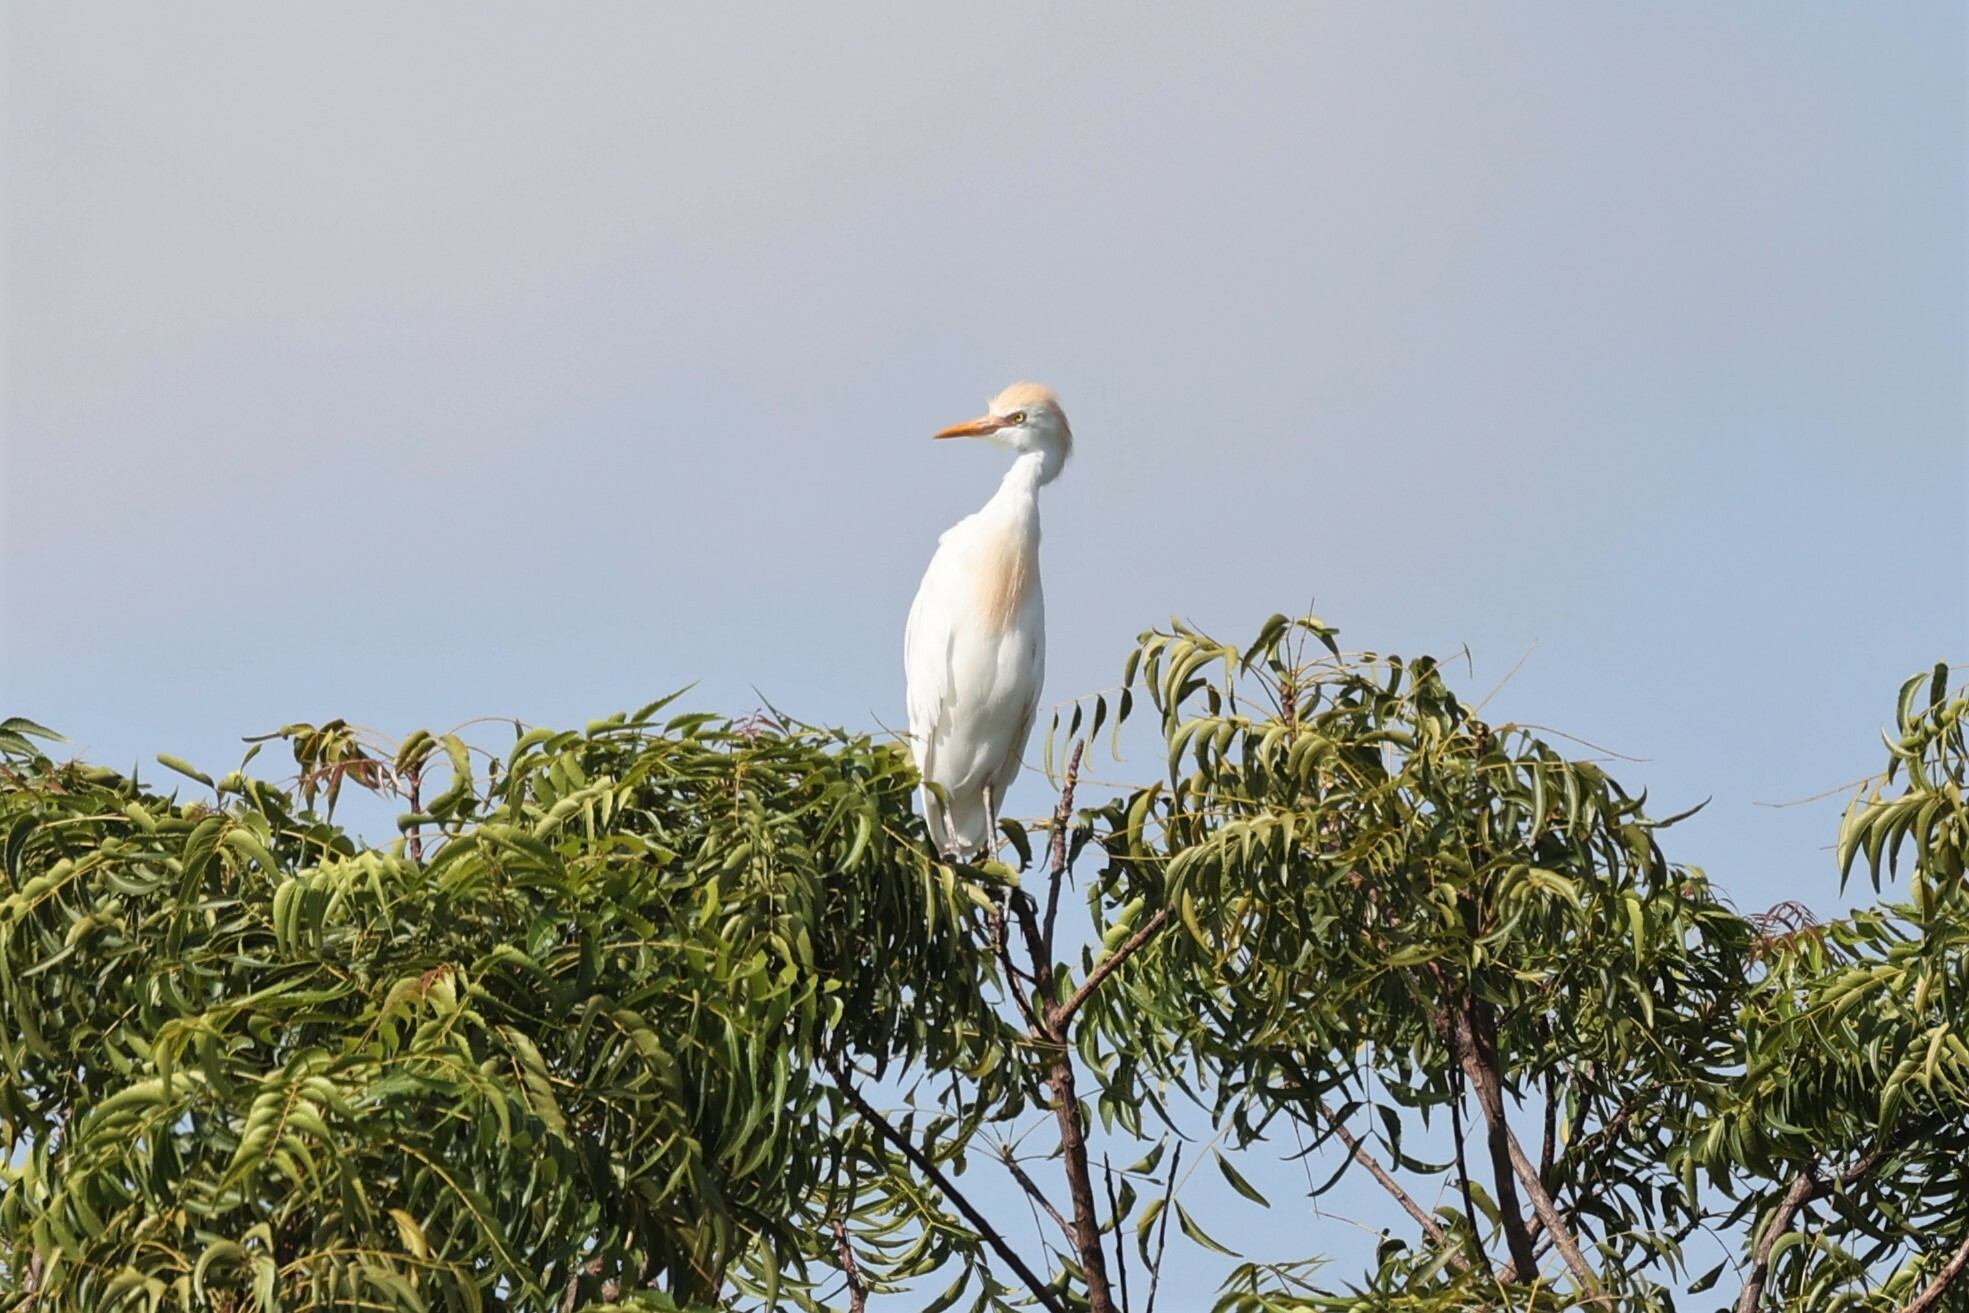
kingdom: Animalia
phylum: Chordata
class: Aves
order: Pelecaniformes
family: Ardeidae
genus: Bubulcus
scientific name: Bubulcus ibis
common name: Cattle egret
